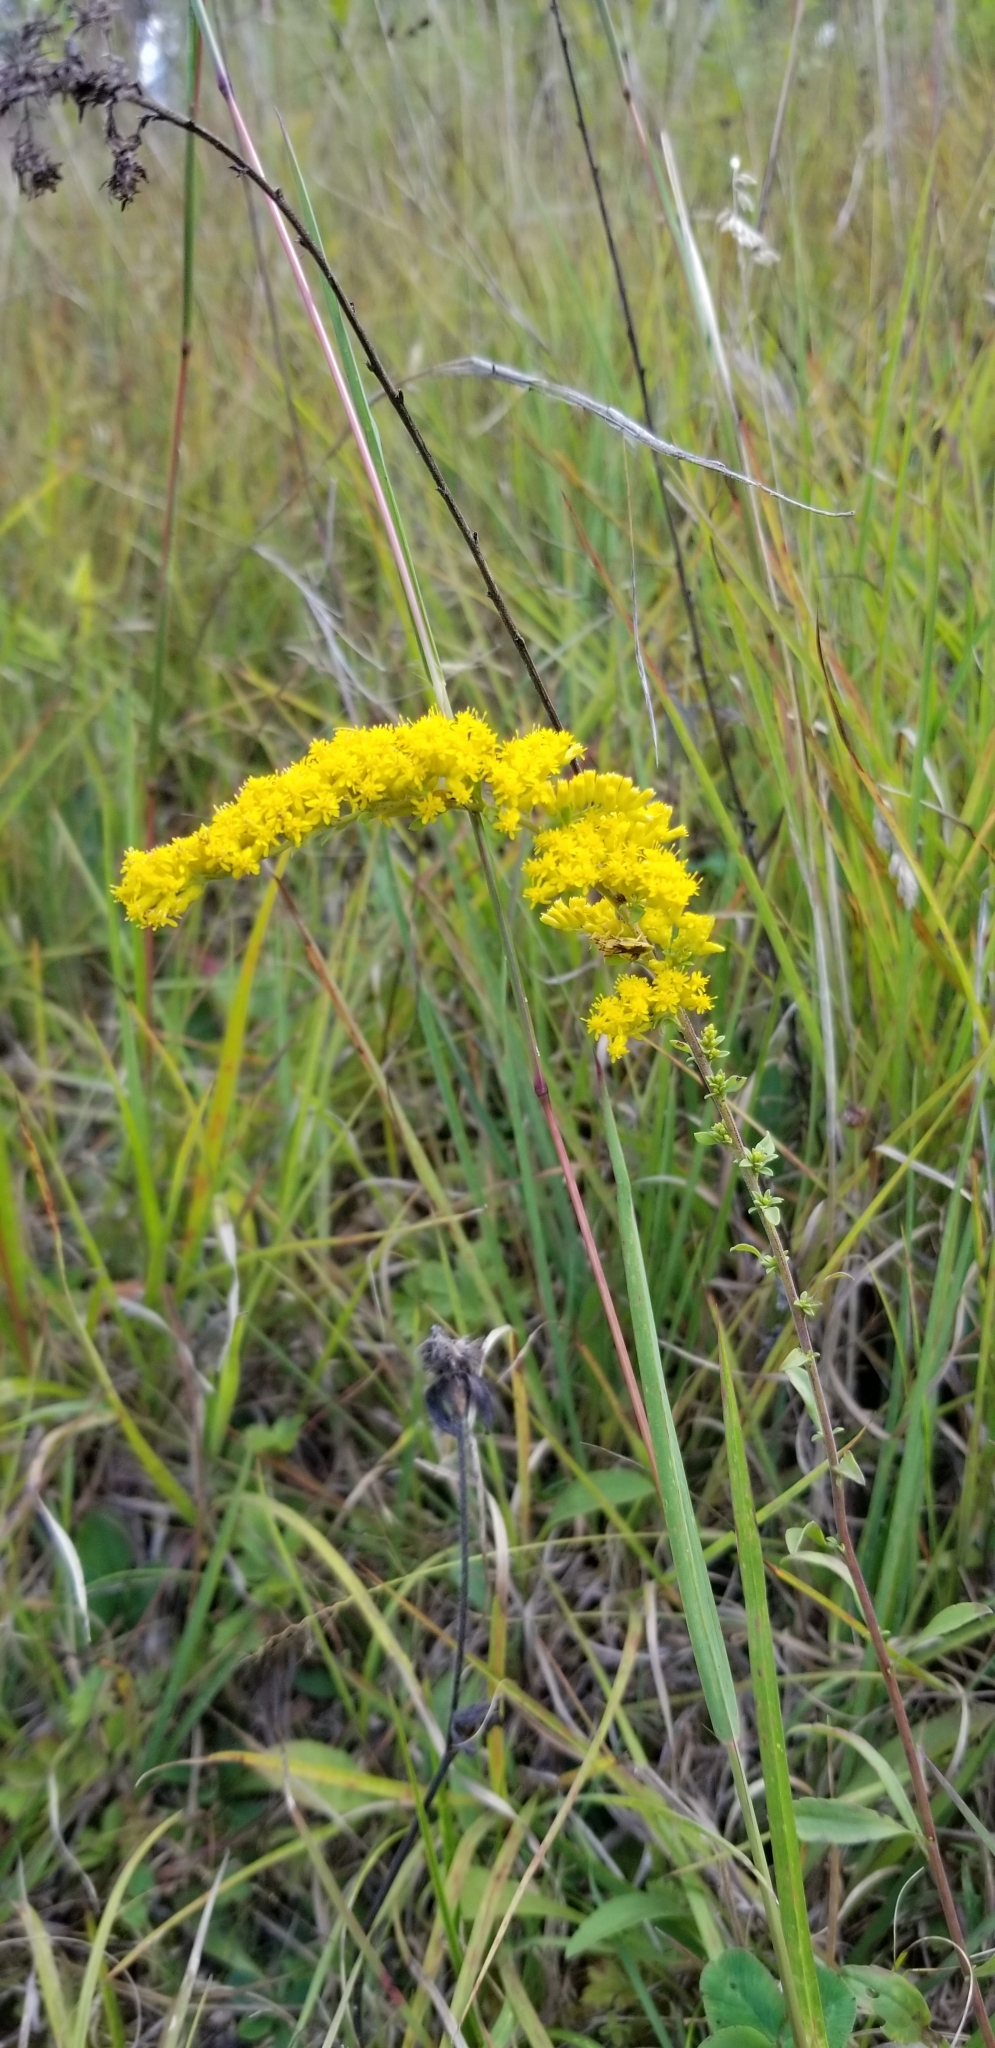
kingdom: Plantae
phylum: Tracheophyta
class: Magnoliopsida
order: Asterales
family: Asteraceae
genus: Solidago
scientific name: Solidago nemoralis
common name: Grey goldenrod
